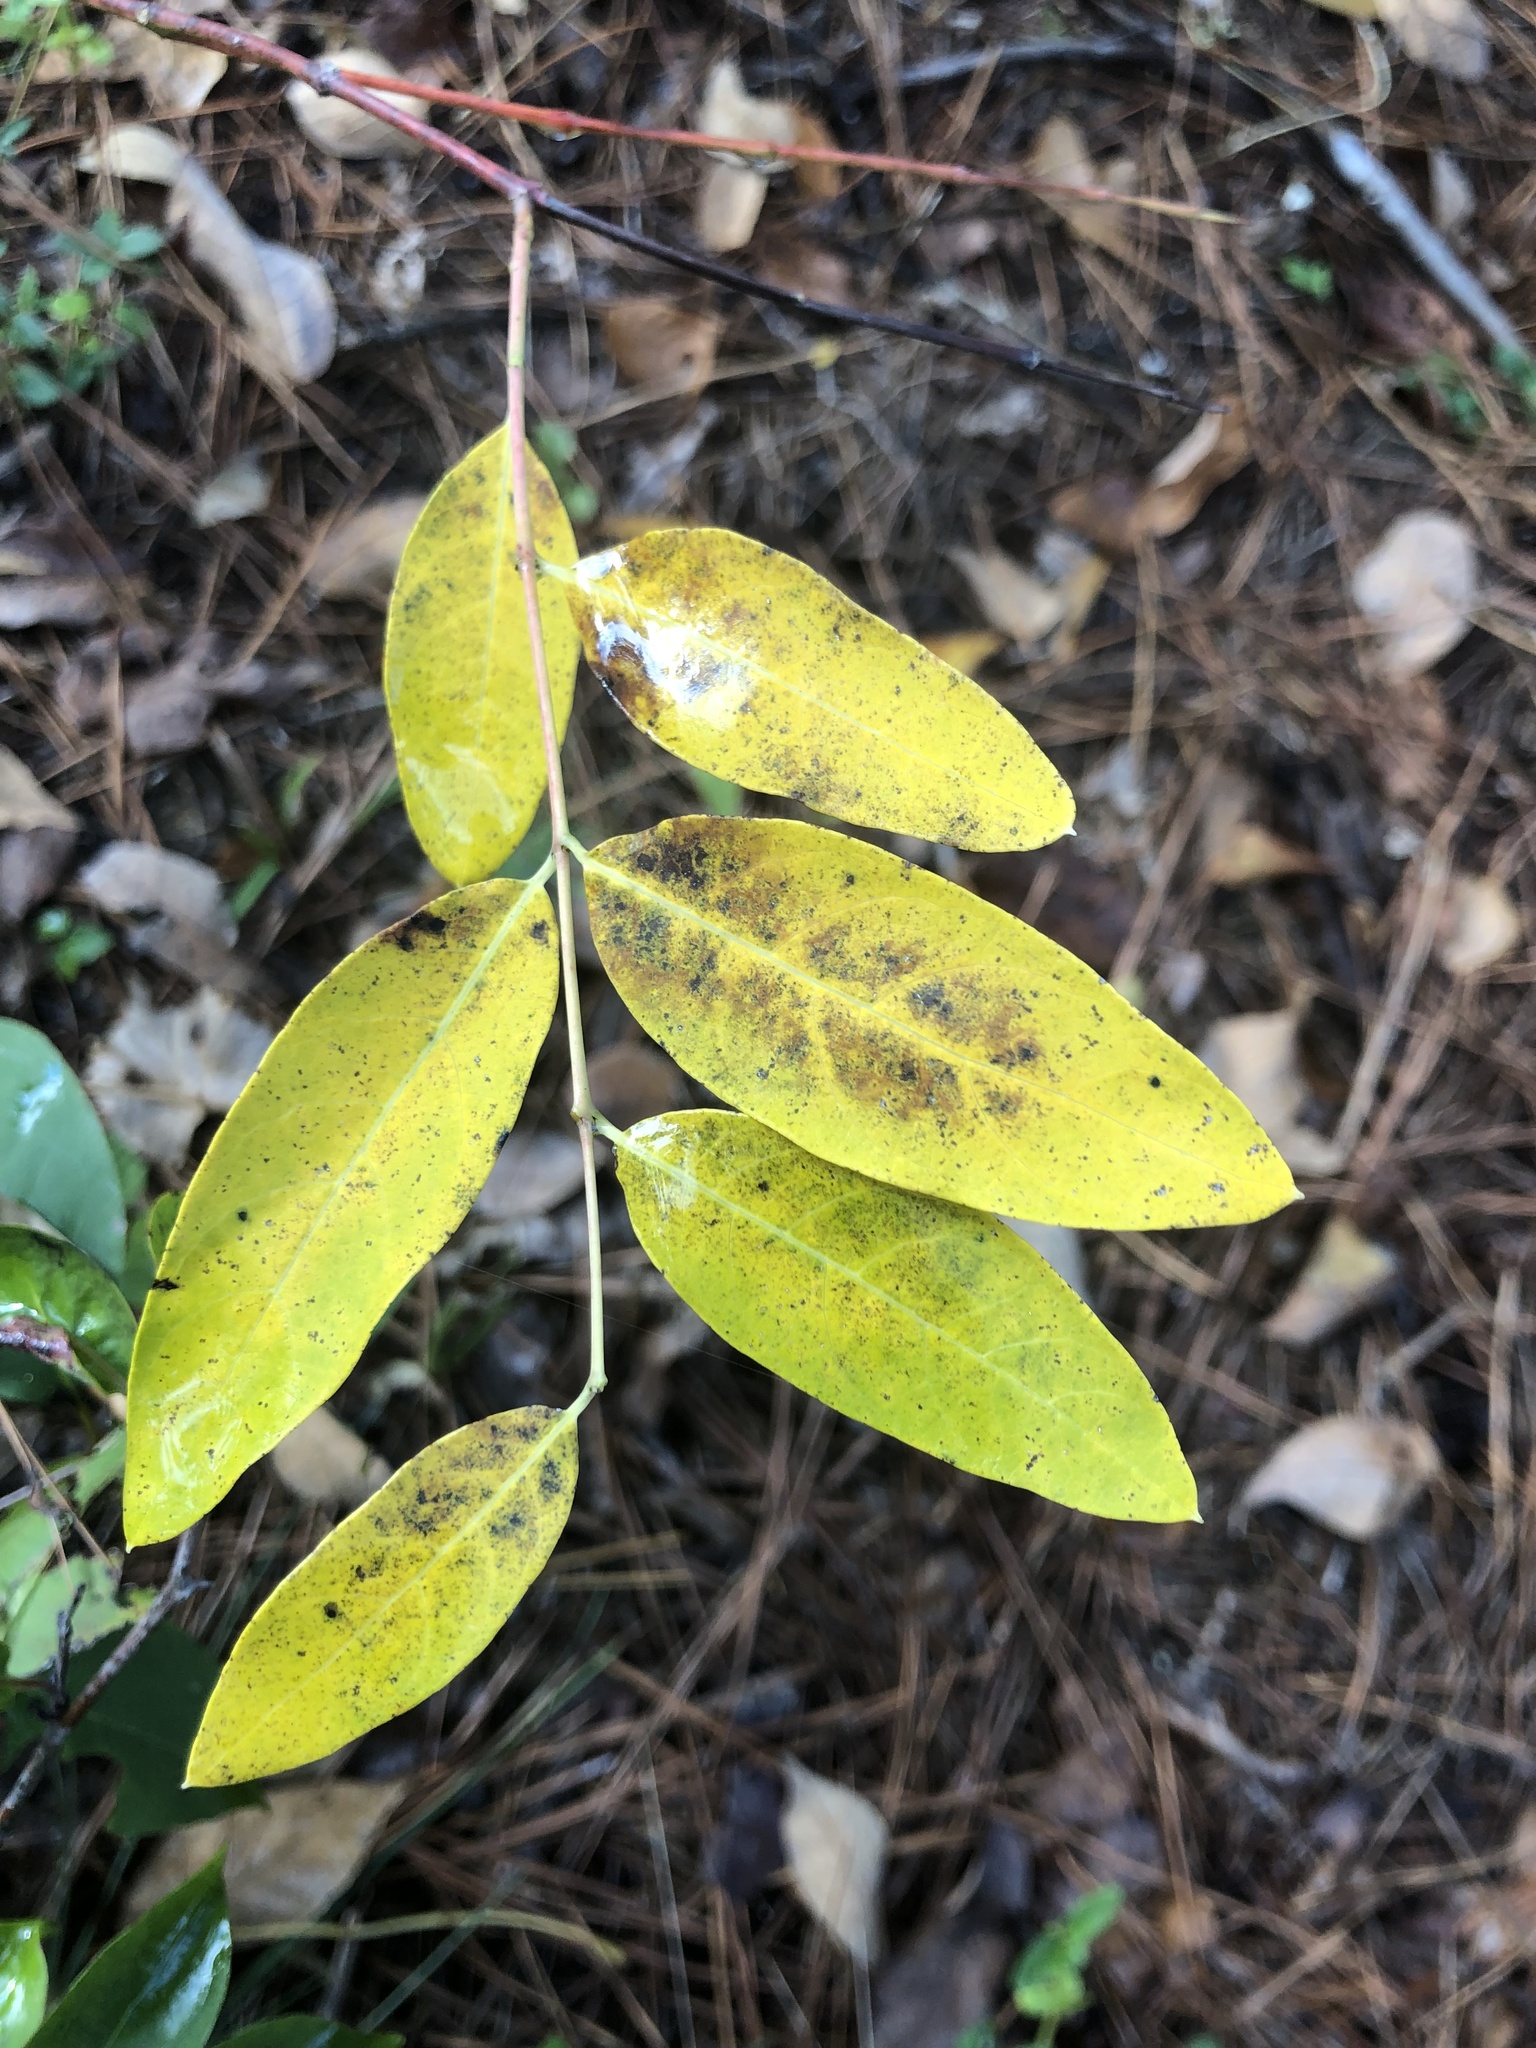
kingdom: Plantae
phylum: Tracheophyta
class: Magnoliopsida
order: Gentianales
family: Apocynaceae
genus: Apocynum
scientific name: Apocynum cannabinum
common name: Hemp dogbane
